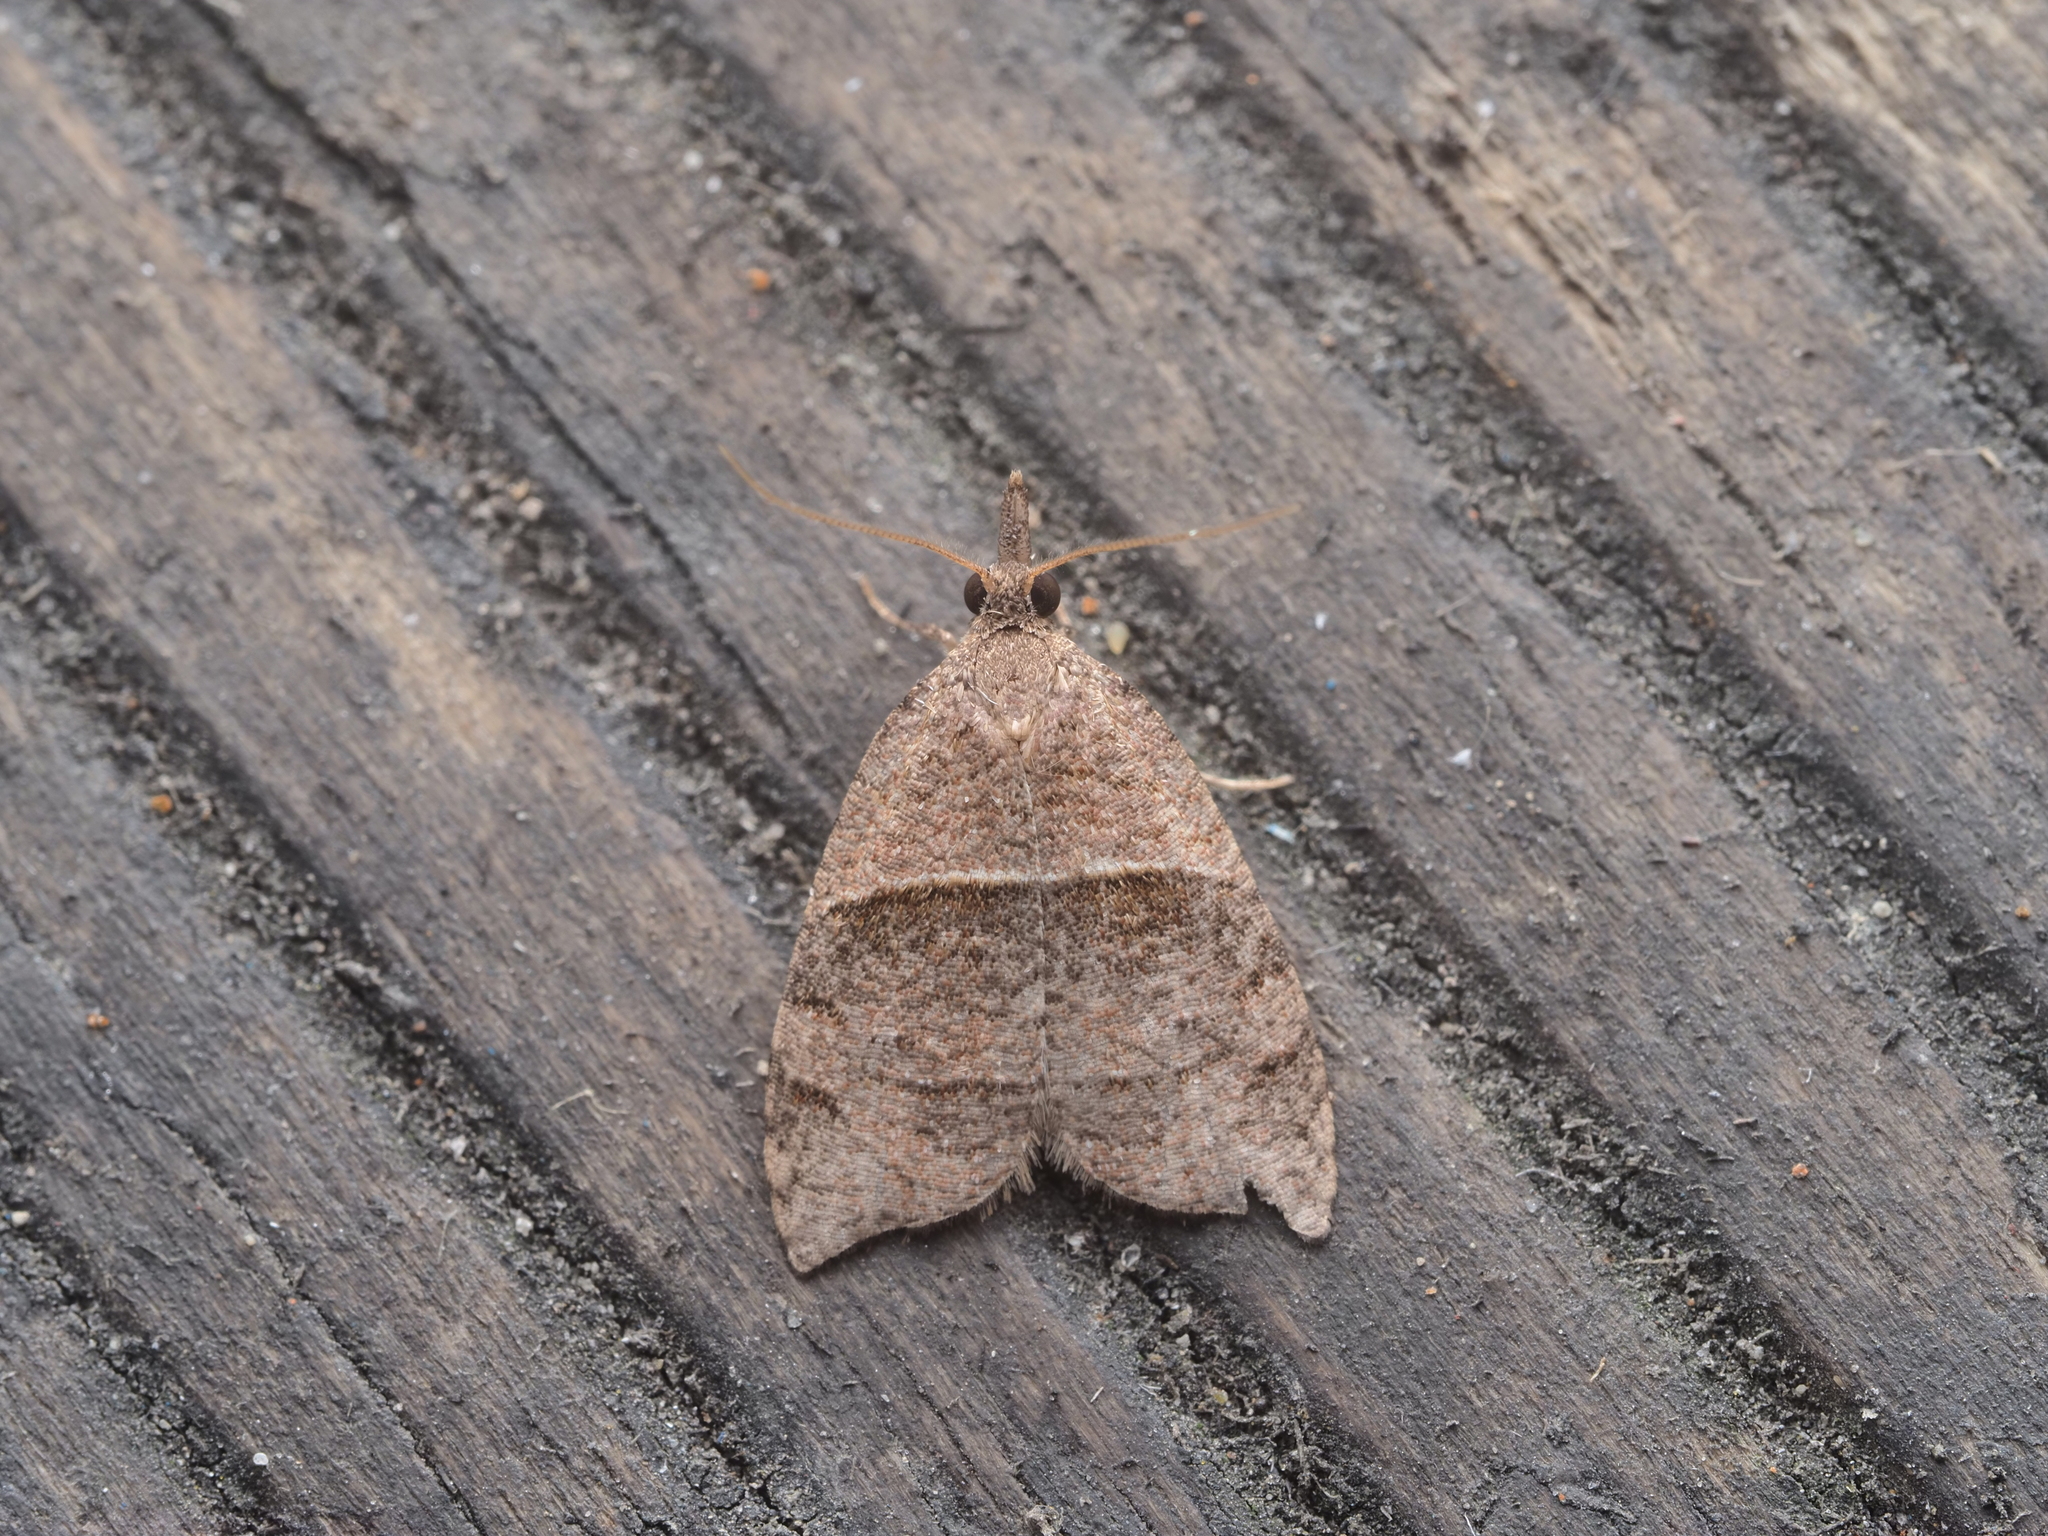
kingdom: Animalia
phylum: Arthropoda
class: Insecta
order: Lepidoptera
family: Tortricidae
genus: Cnephasia
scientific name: Cnephasia incertana
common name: Light grey tortrix
